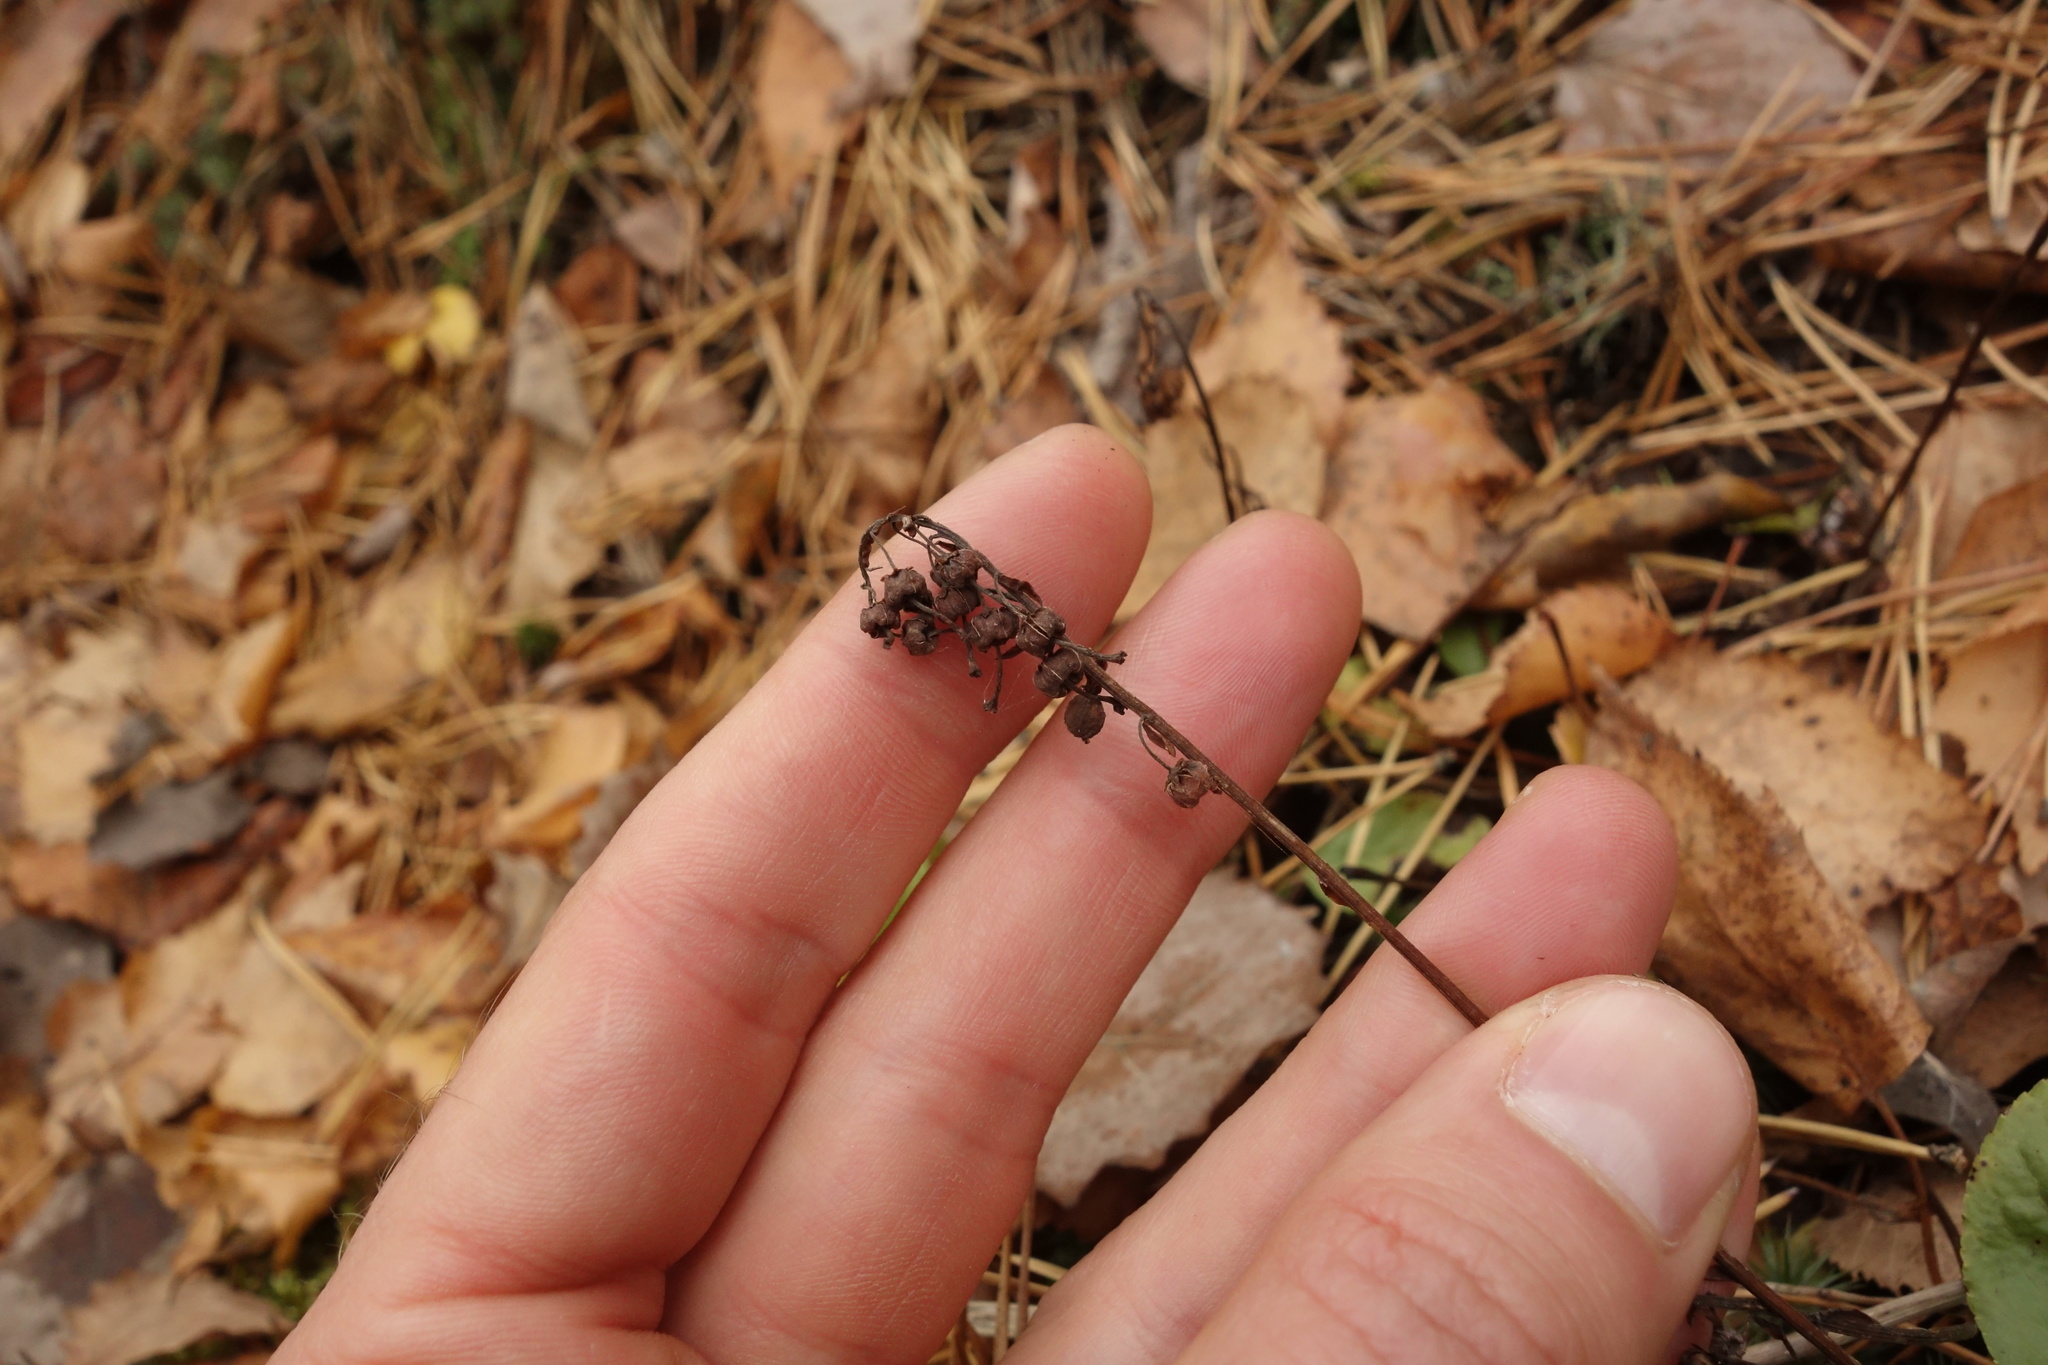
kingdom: Plantae
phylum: Tracheophyta
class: Magnoliopsida
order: Ericales
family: Ericaceae
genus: Orthilia
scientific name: Orthilia secunda
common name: One-sided orthilia
